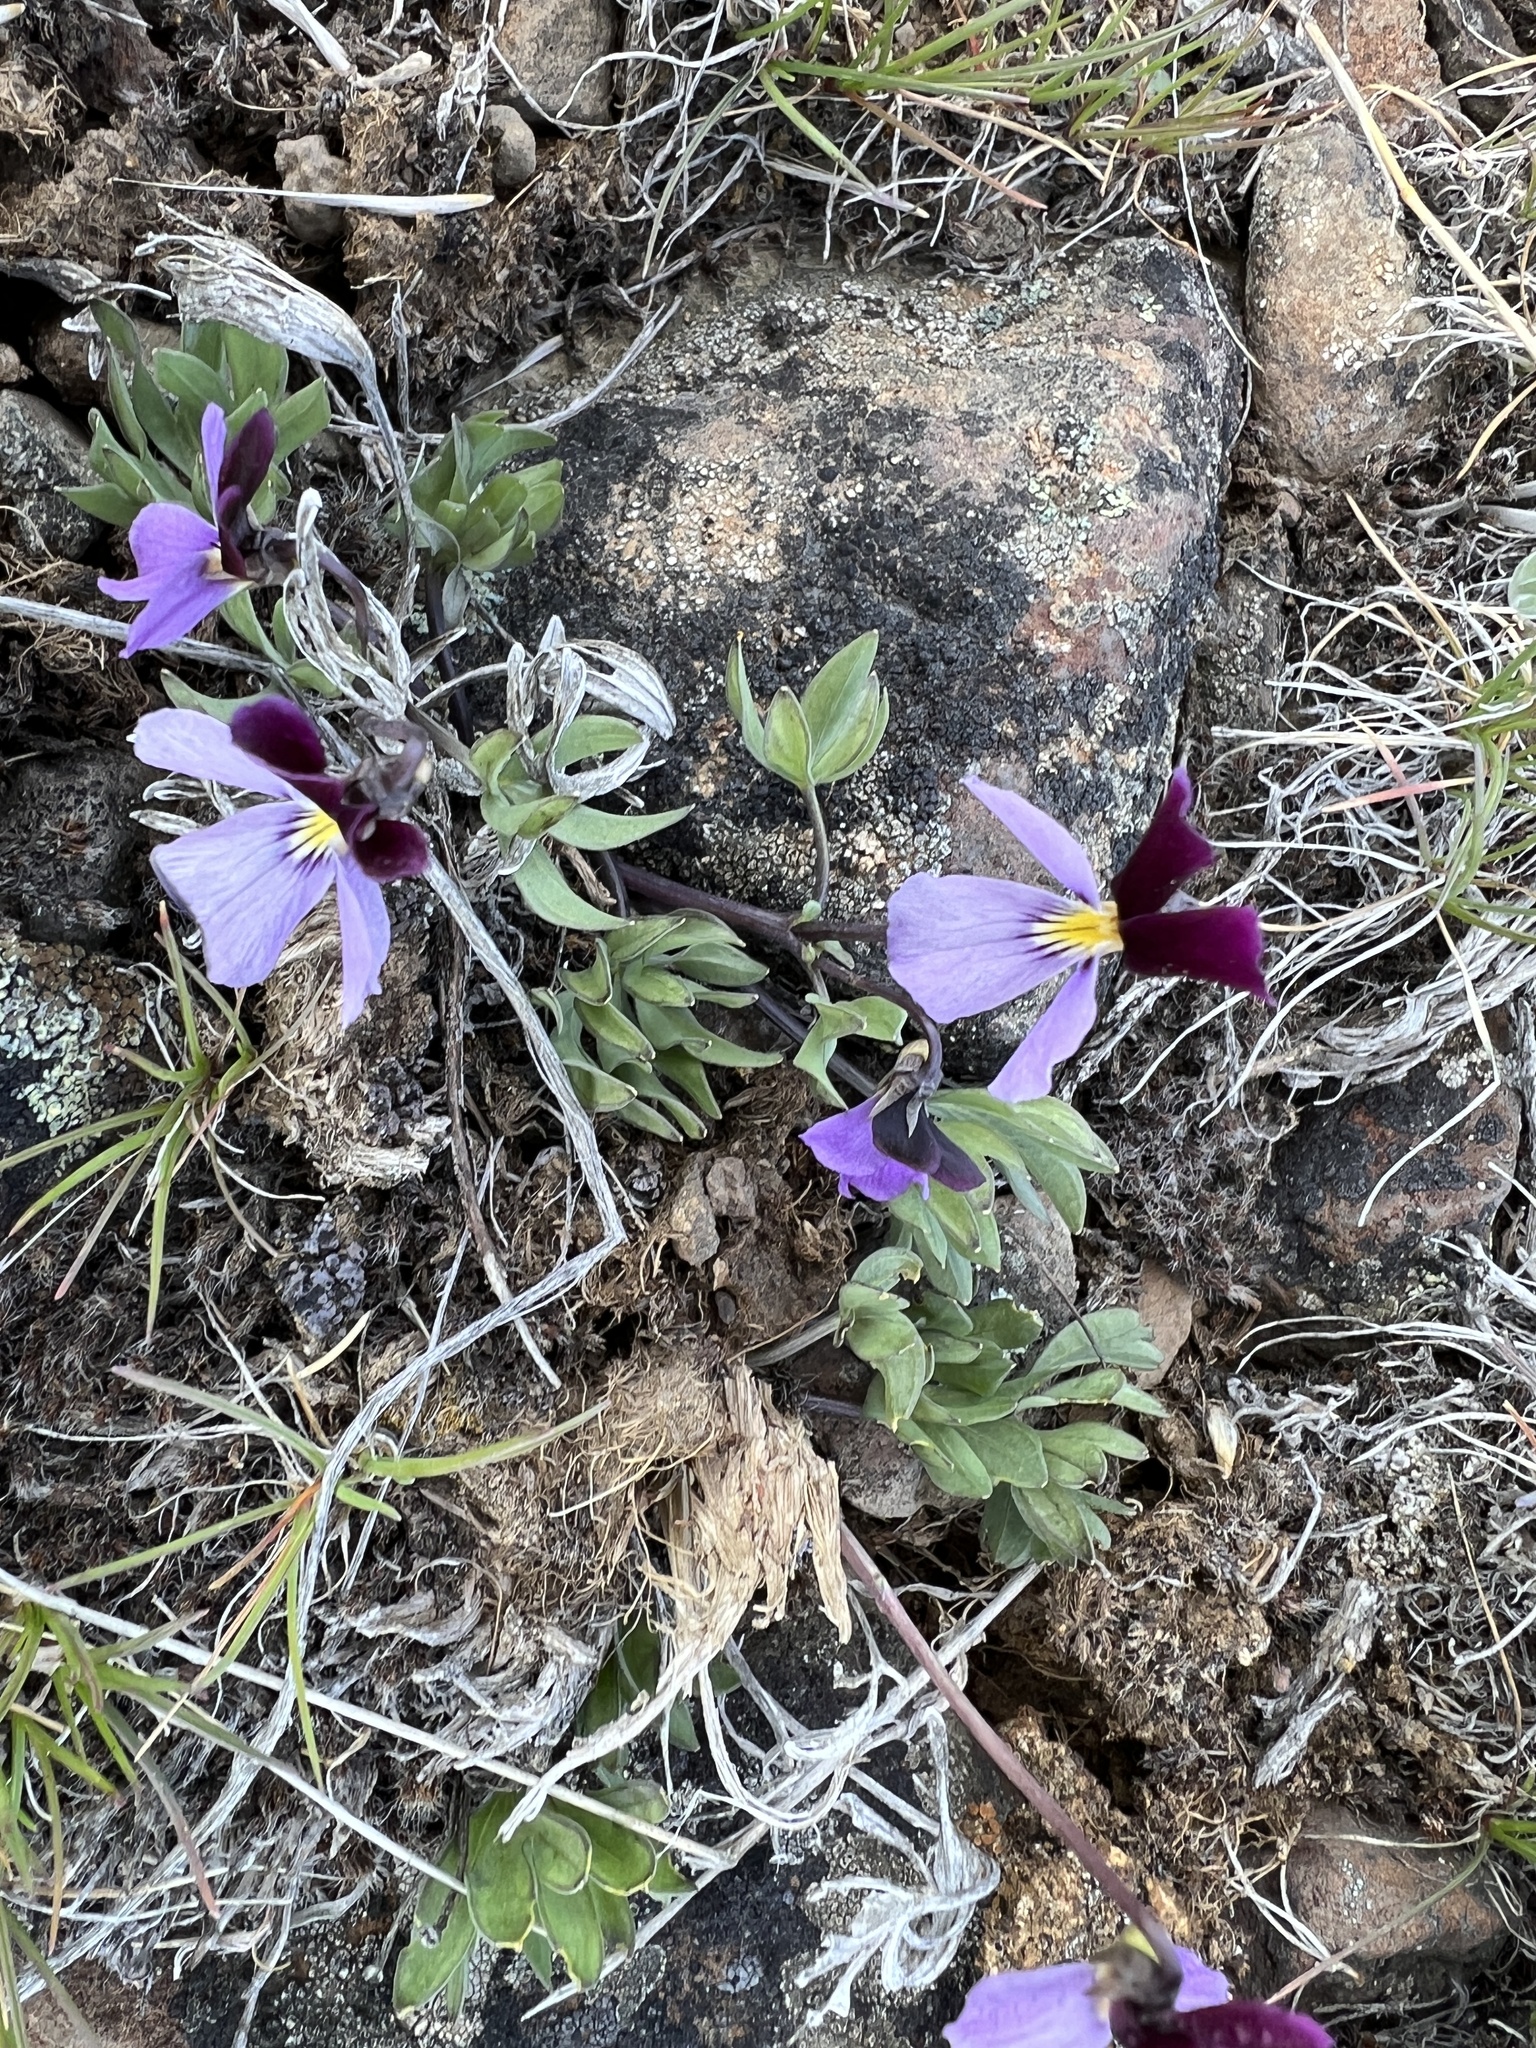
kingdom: Plantae
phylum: Tracheophyta
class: Magnoliopsida
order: Malpighiales
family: Violaceae
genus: Viola
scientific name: Viola trinervata
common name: Sagebrush violet
